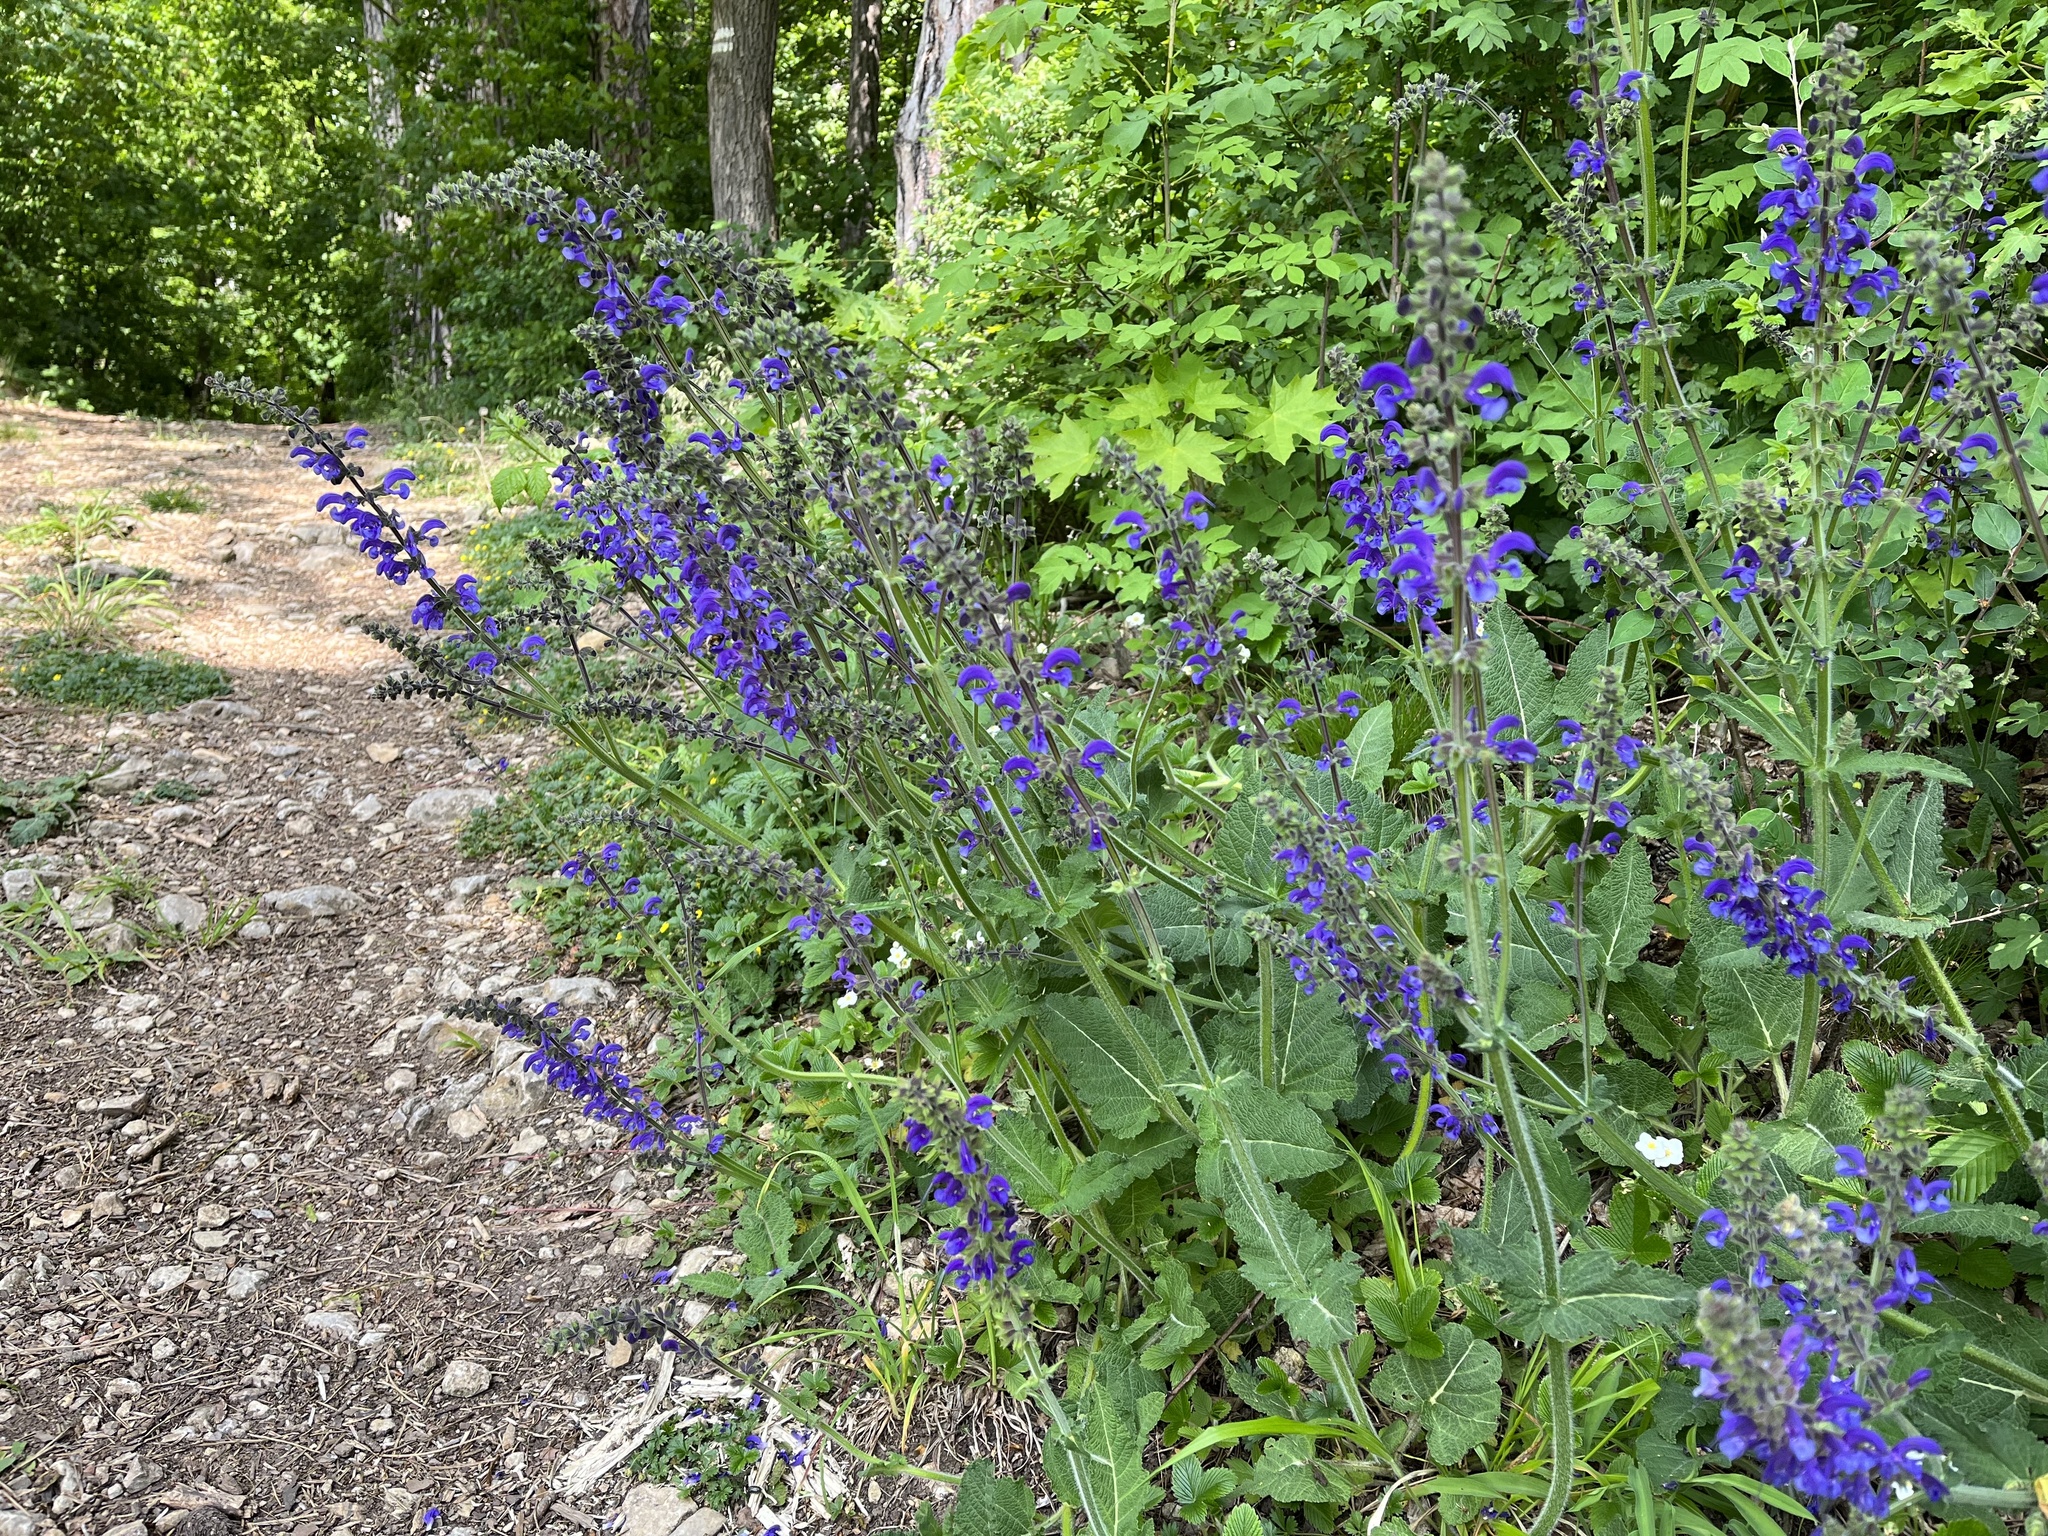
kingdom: Plantae
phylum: Tracheophyta
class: Magnoliopsida
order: Lamiales
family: Lamiaceae
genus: Salvia
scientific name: Salvia pratensis
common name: Meadow sage
